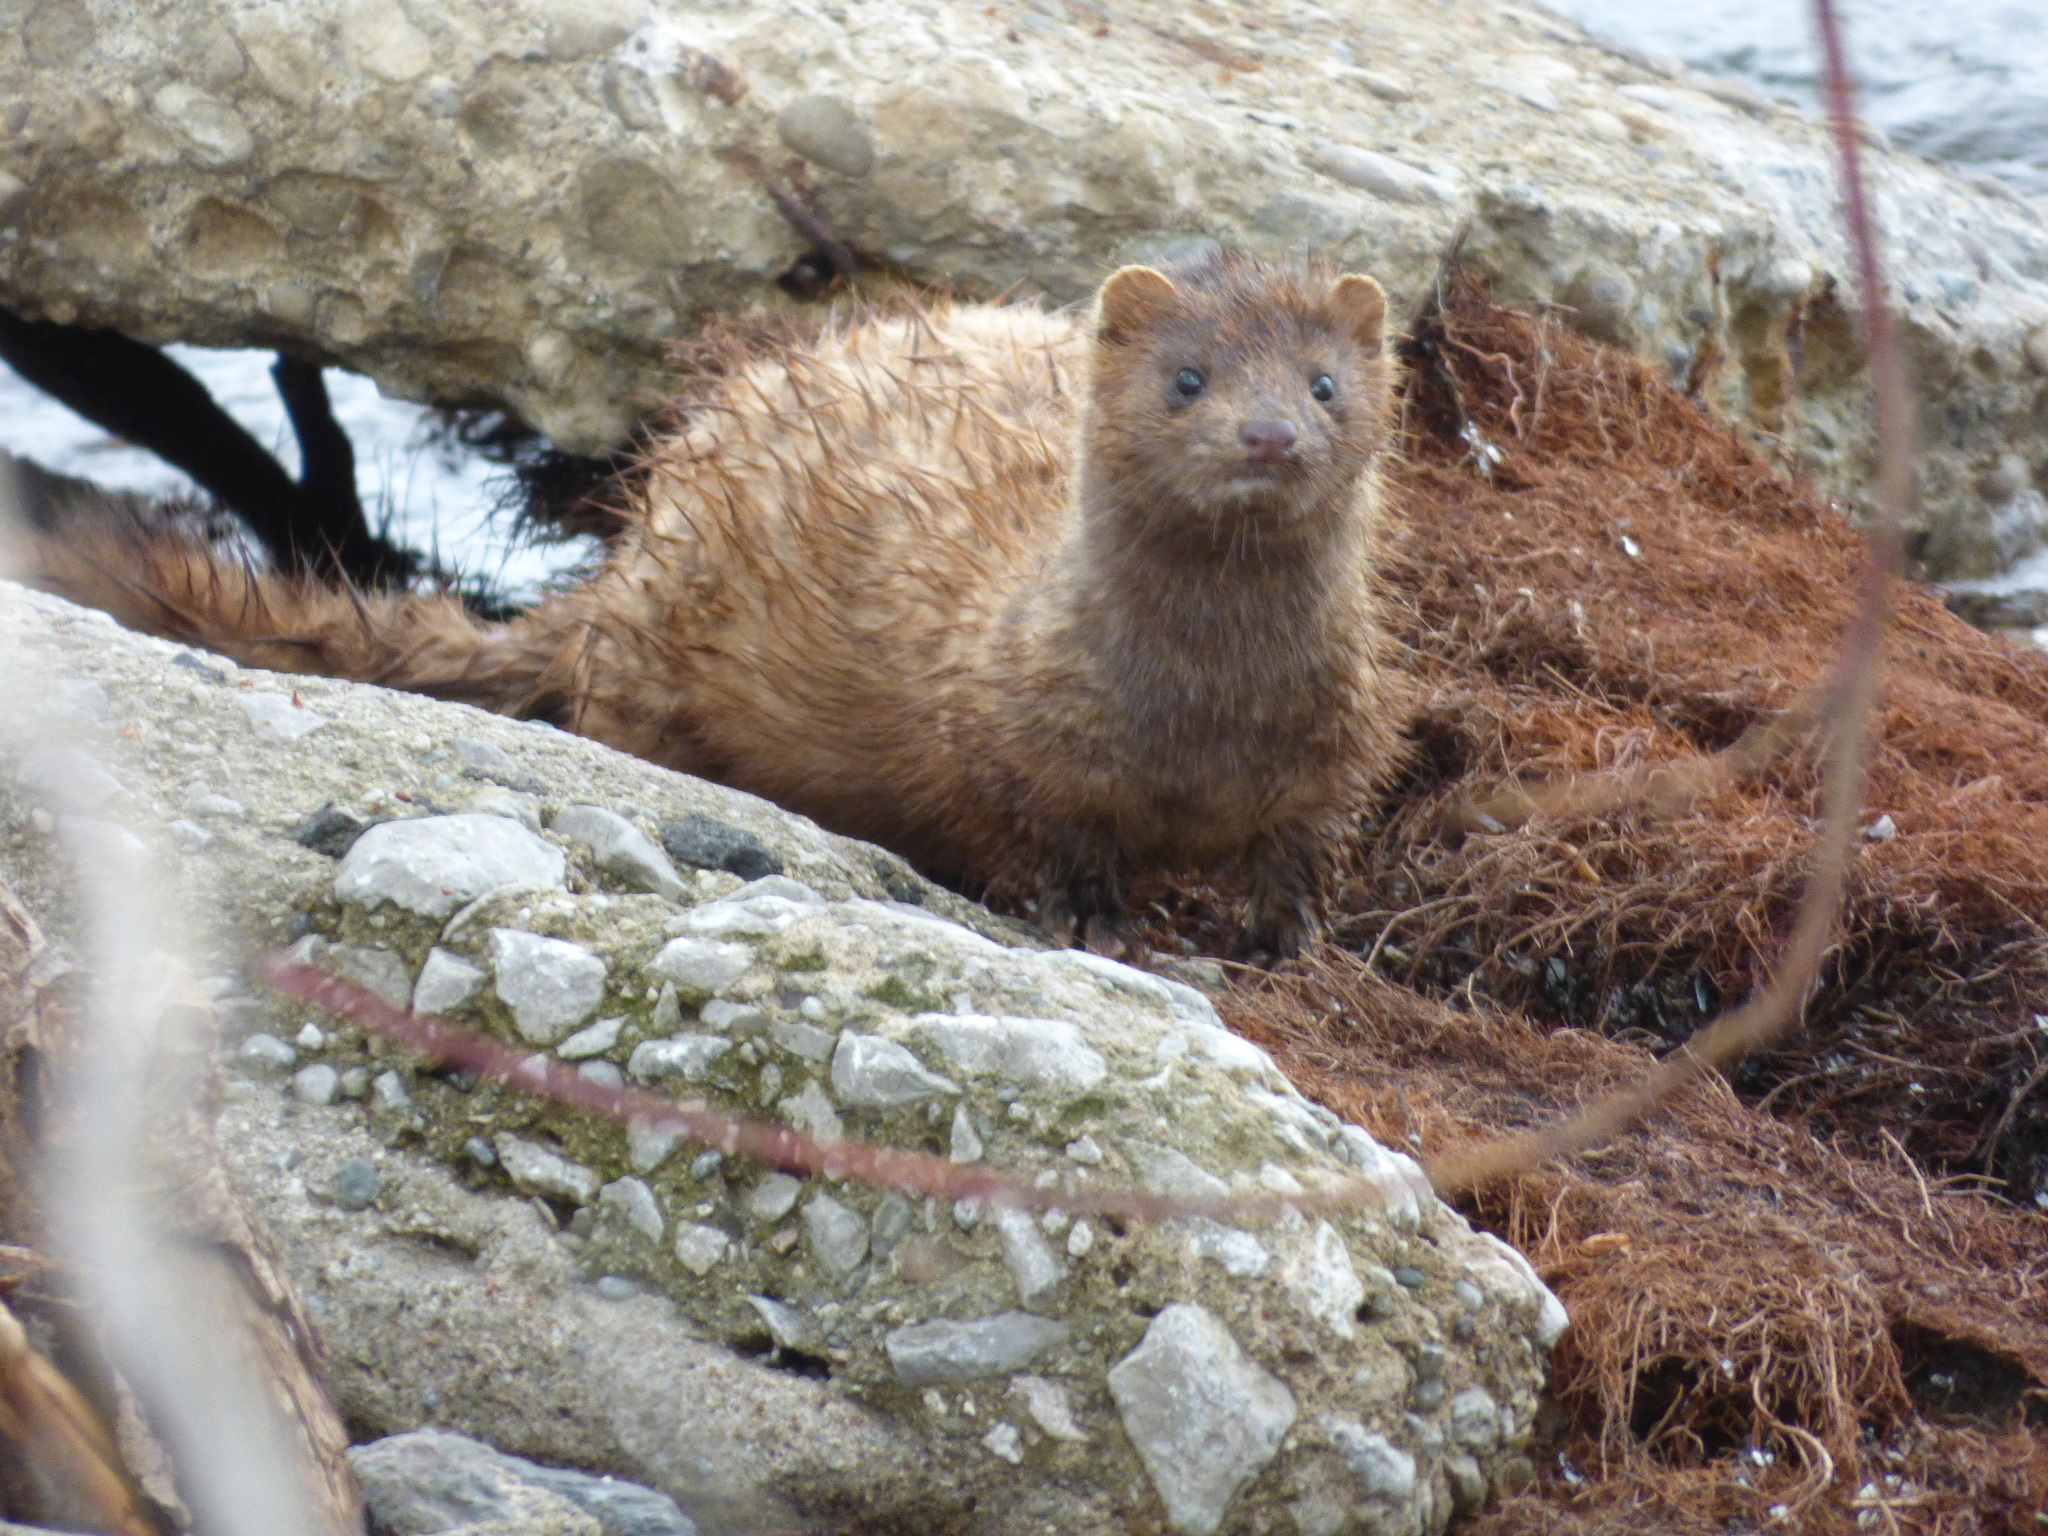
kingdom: Animalia
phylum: Chordata
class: Mammalia
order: Carnivora
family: Mustelidae
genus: Mustela
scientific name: Mustela
